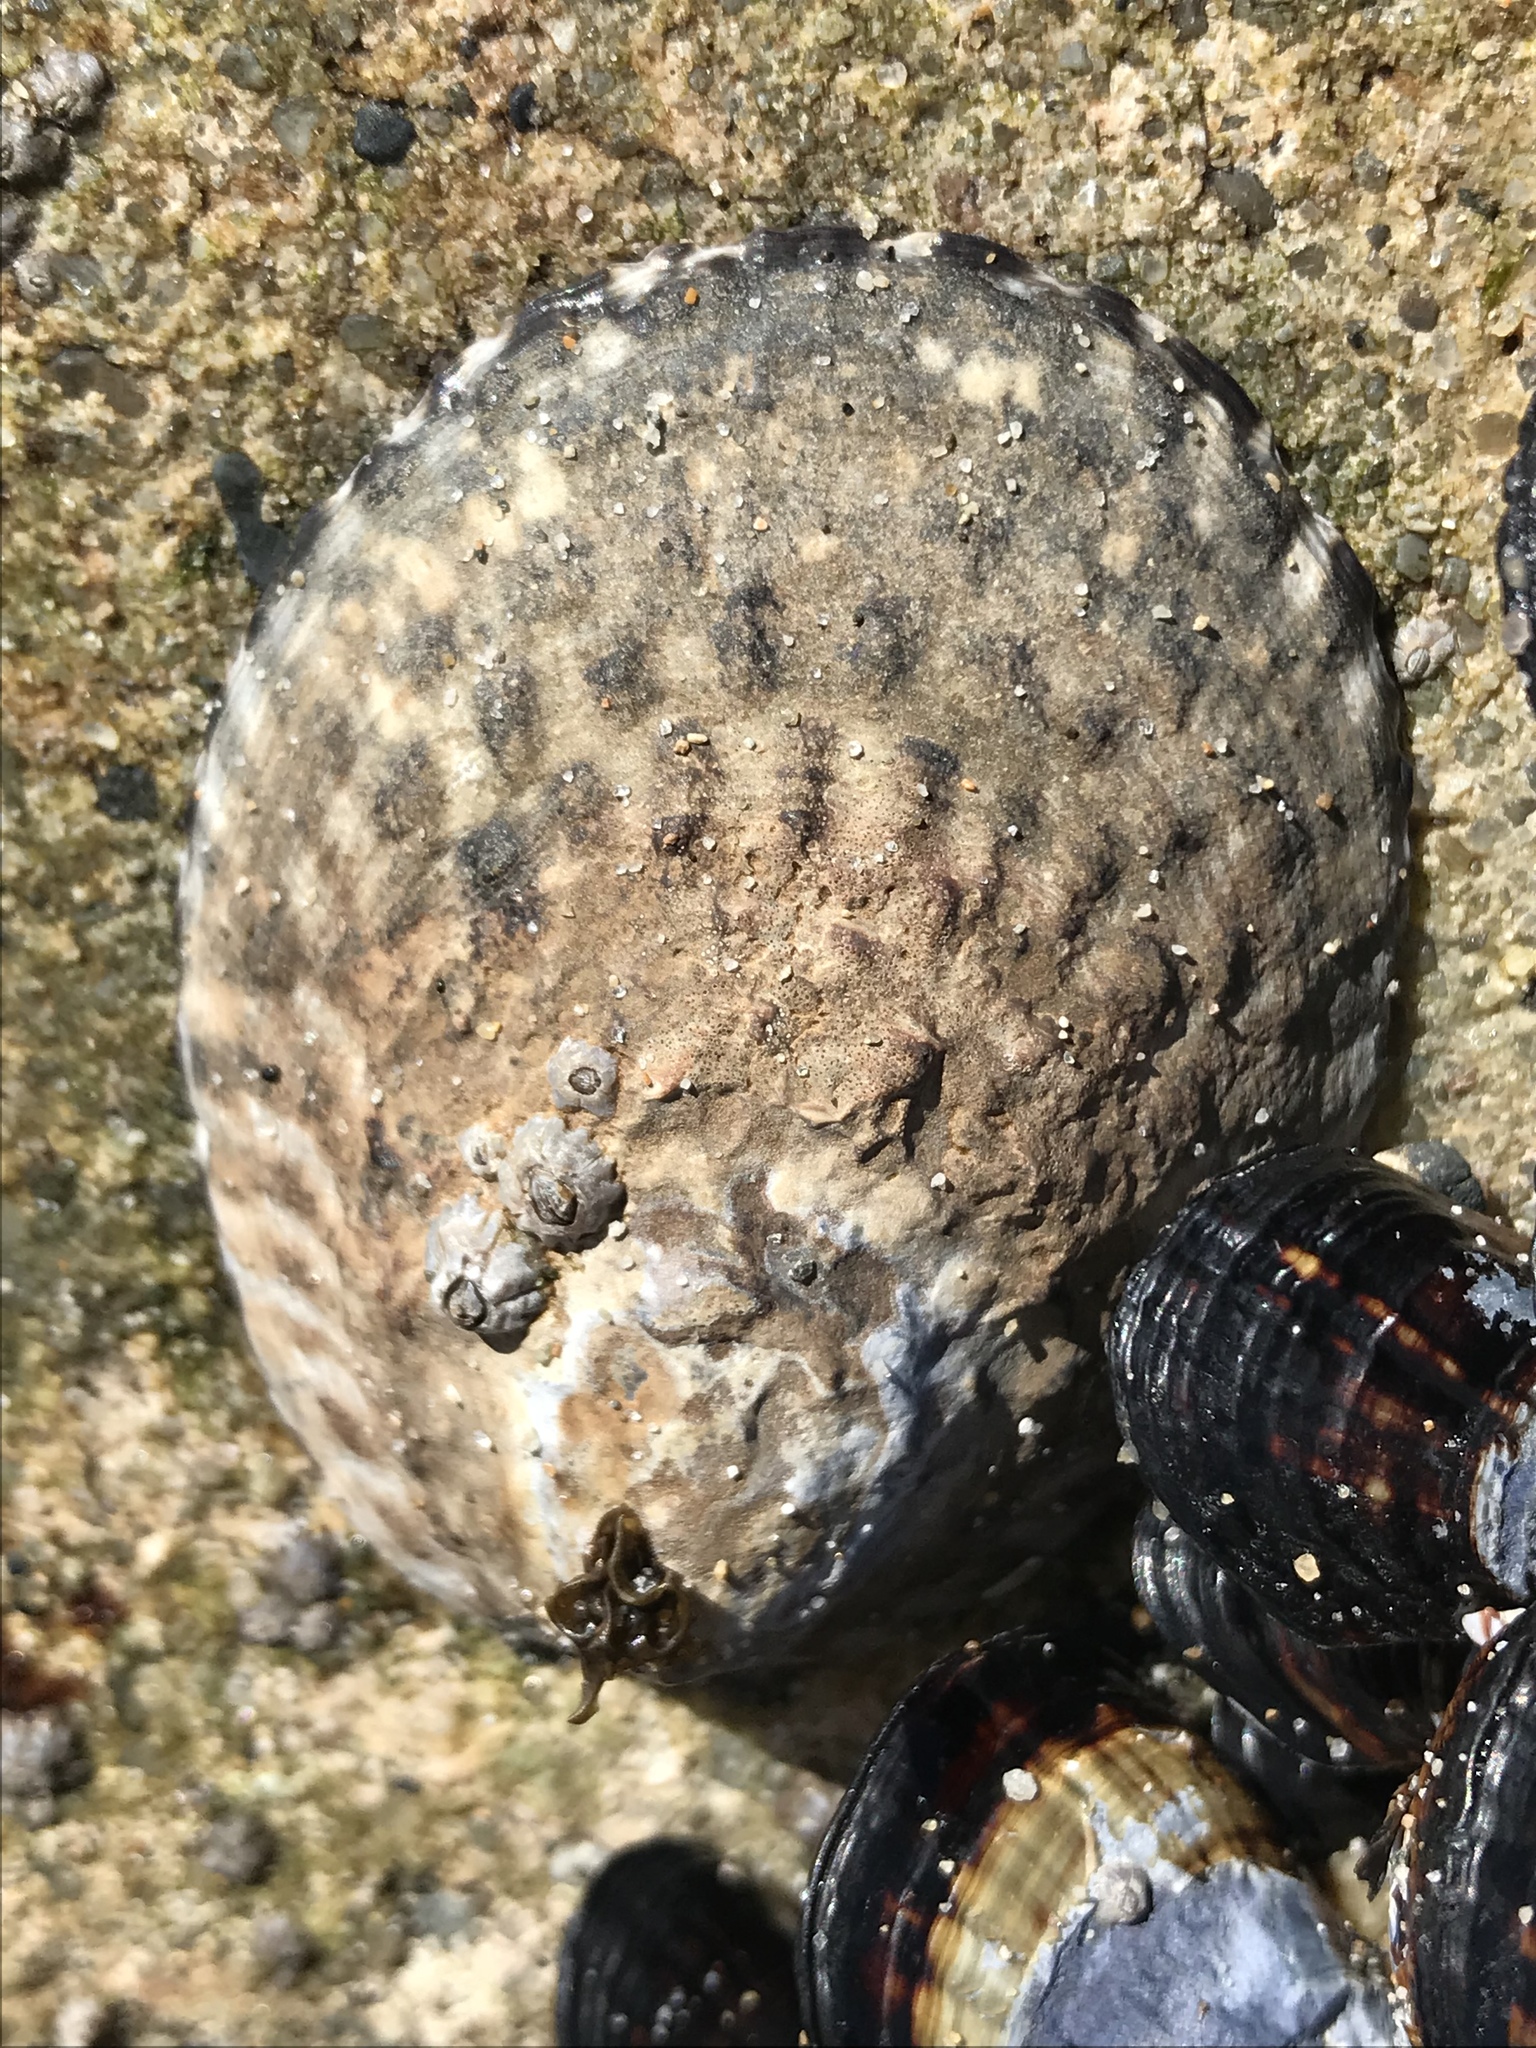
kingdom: Animalia
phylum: Mollusca
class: Gastropoda
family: Lottiidae
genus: Lottia
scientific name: Lottia gigantea
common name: Owl limpet
